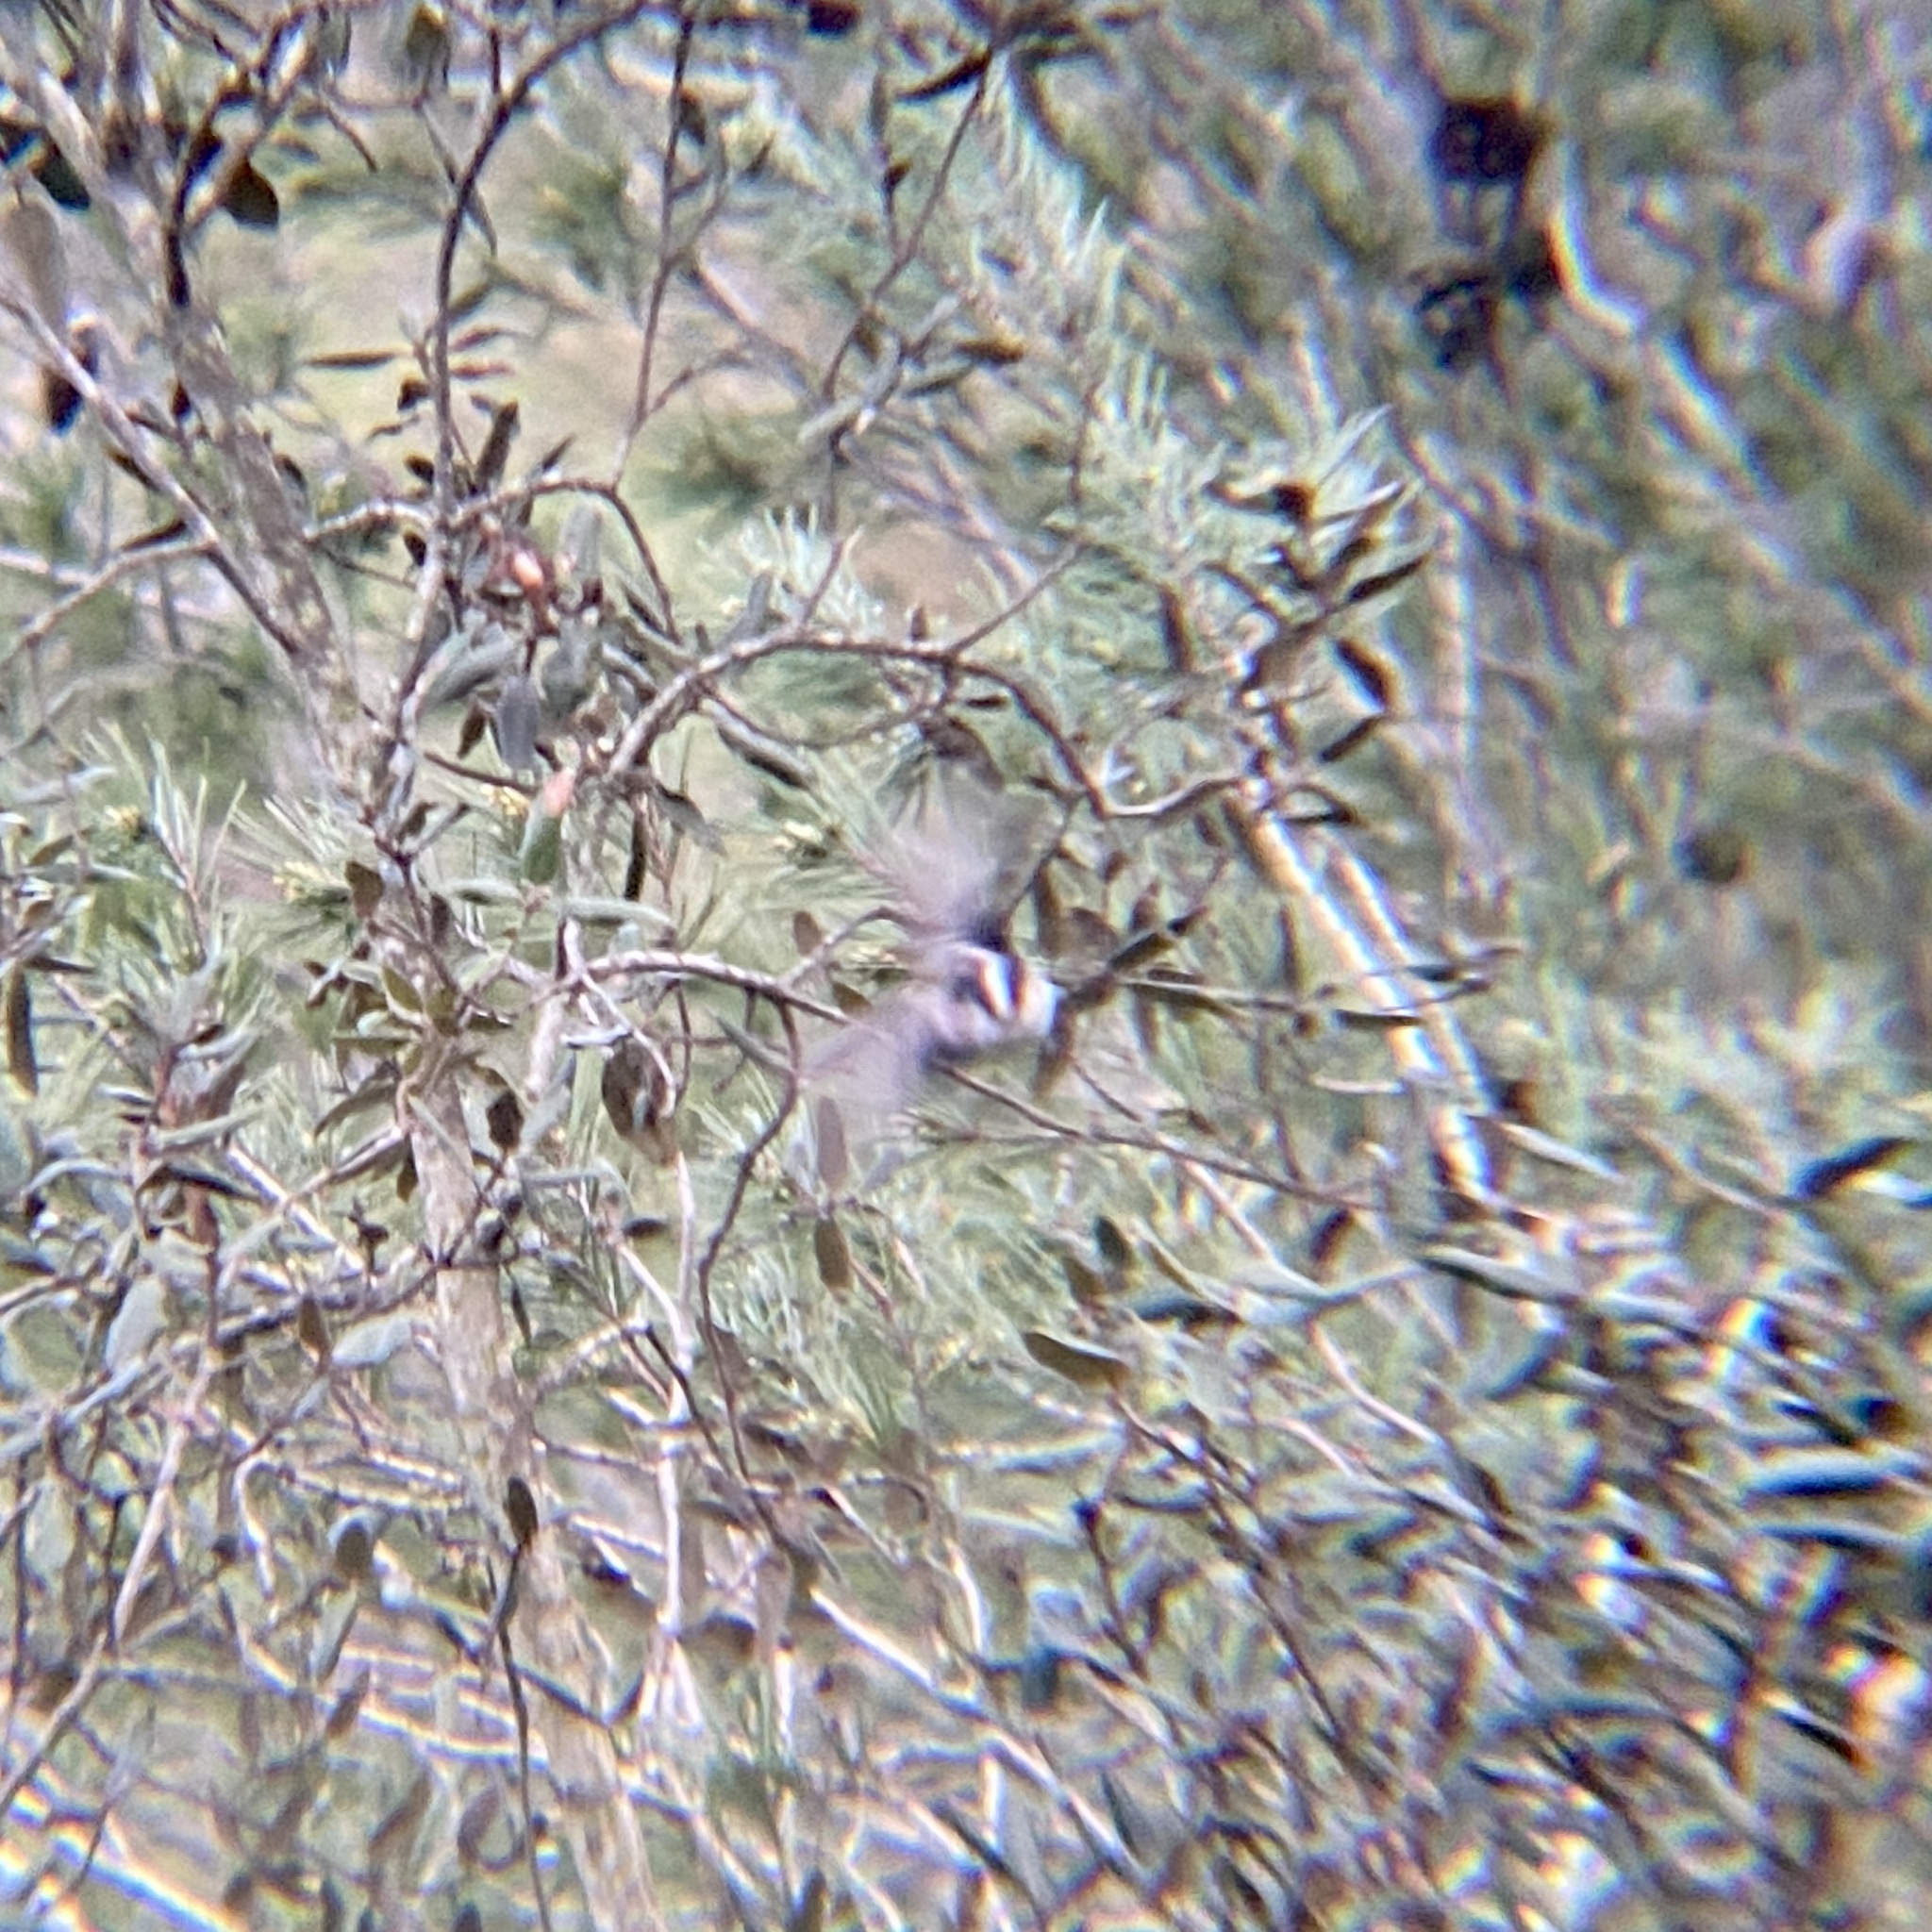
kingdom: Animalia
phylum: Chordata
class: Aves
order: Passeriformes
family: Aegithalidae
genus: Aegithalos
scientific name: Aegithalos caudatus
